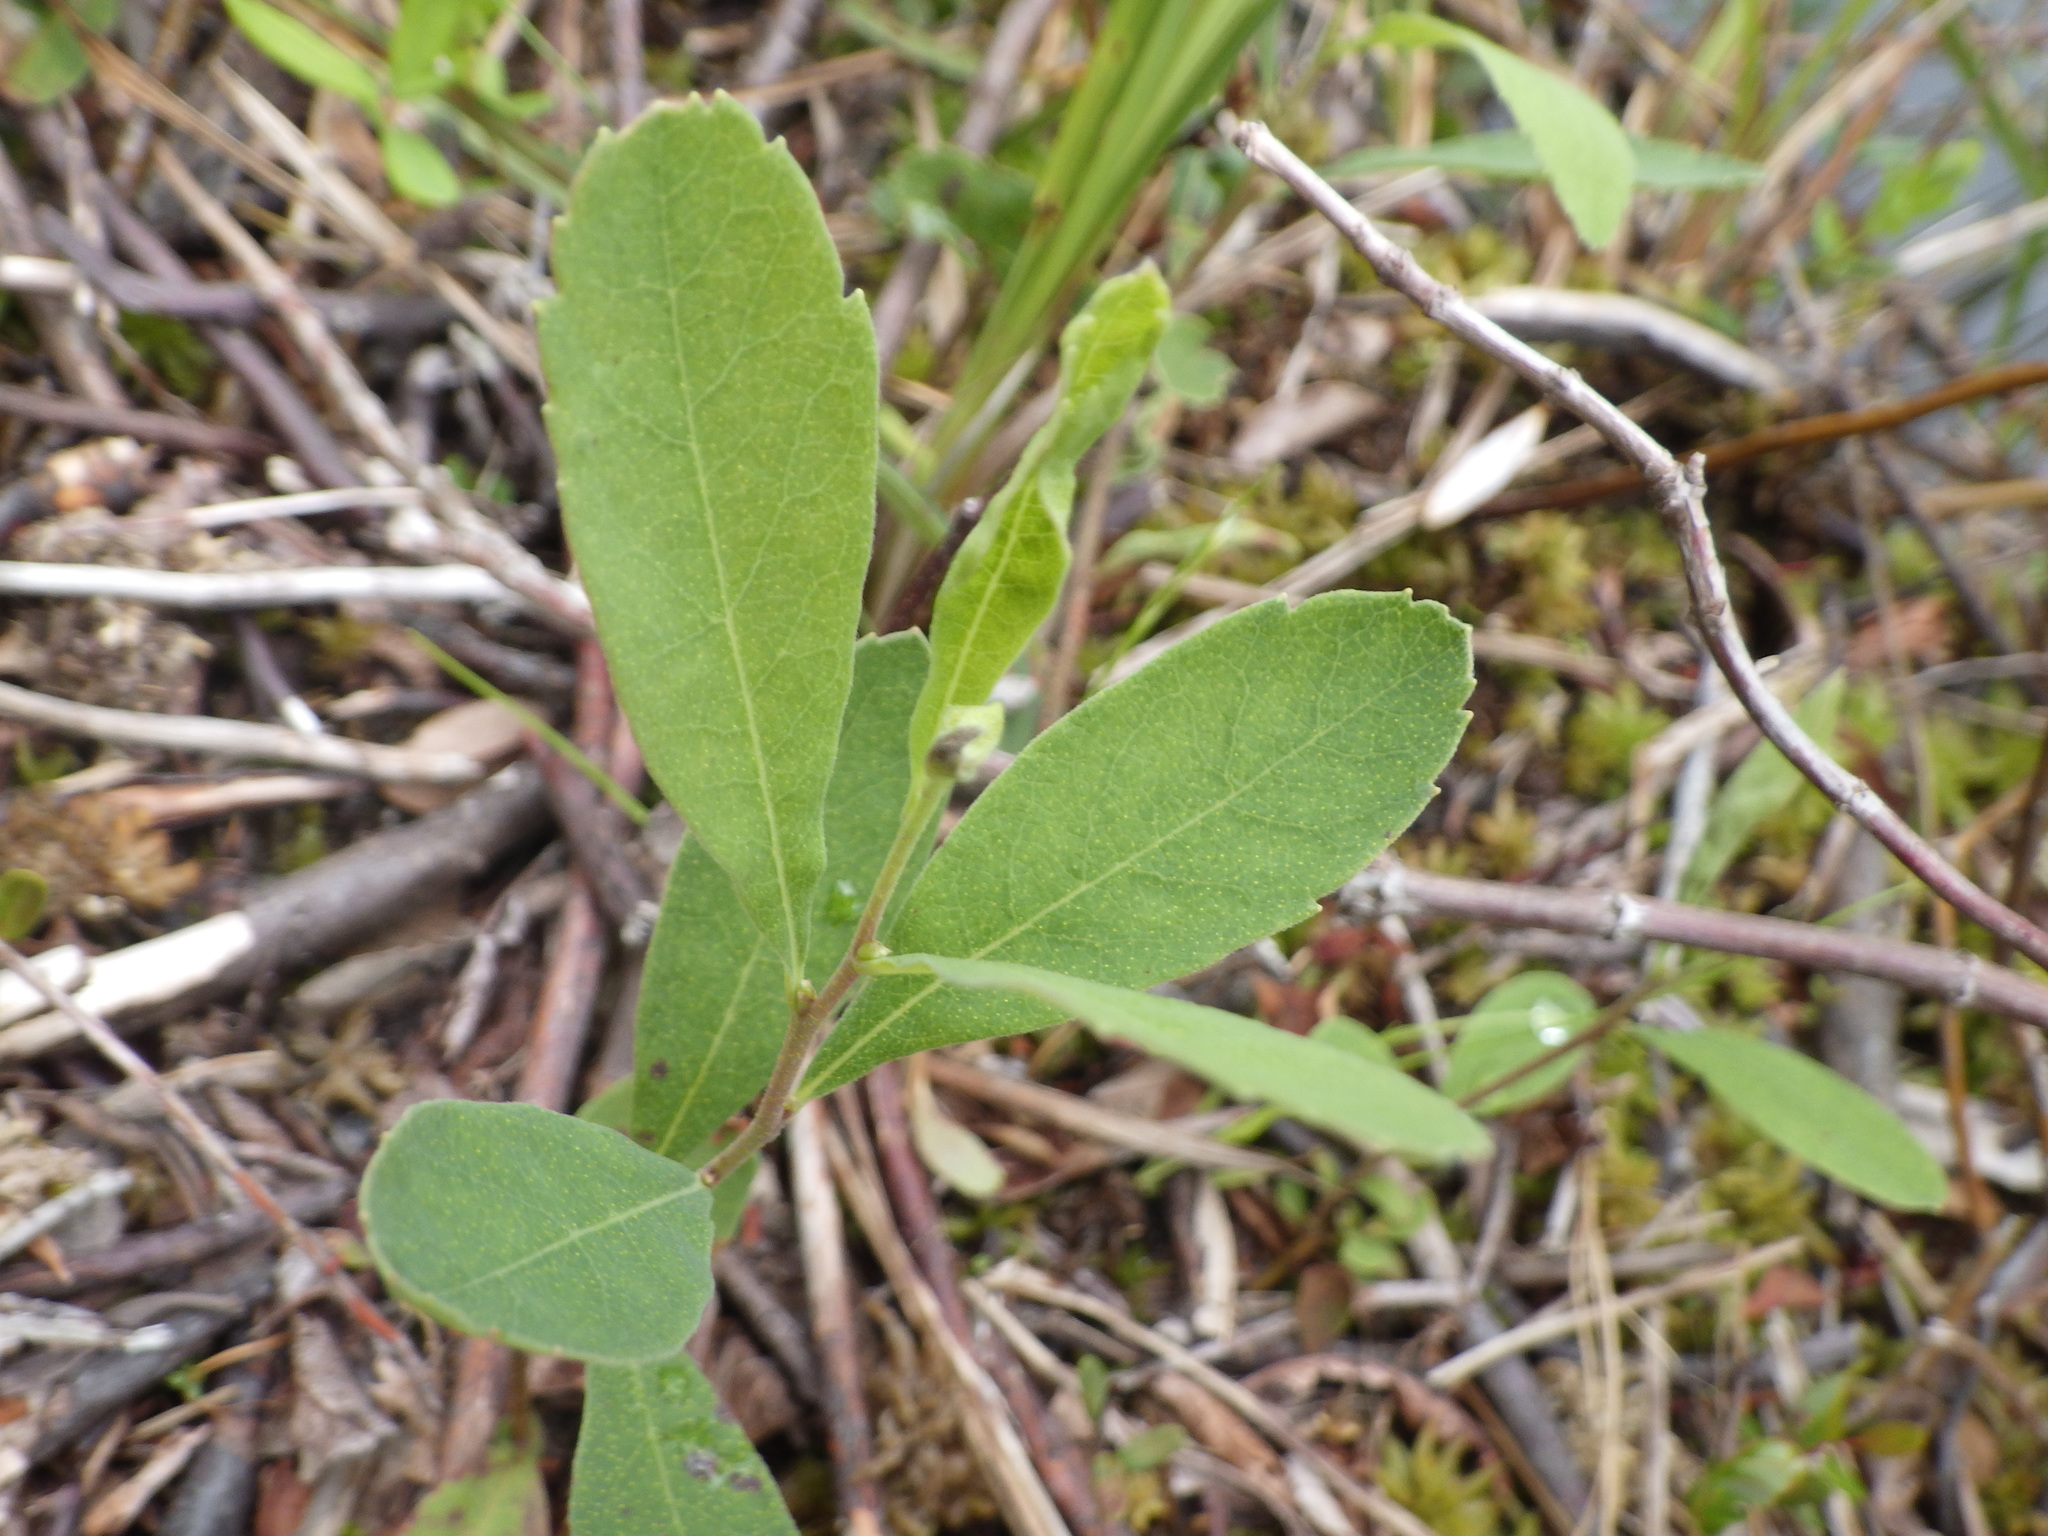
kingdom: Plantae
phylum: Tracheophyta
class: Magnoliopsida
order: Fagales
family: Myricaceae
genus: Myrica
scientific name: Myrica gale
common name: Sweet gale
